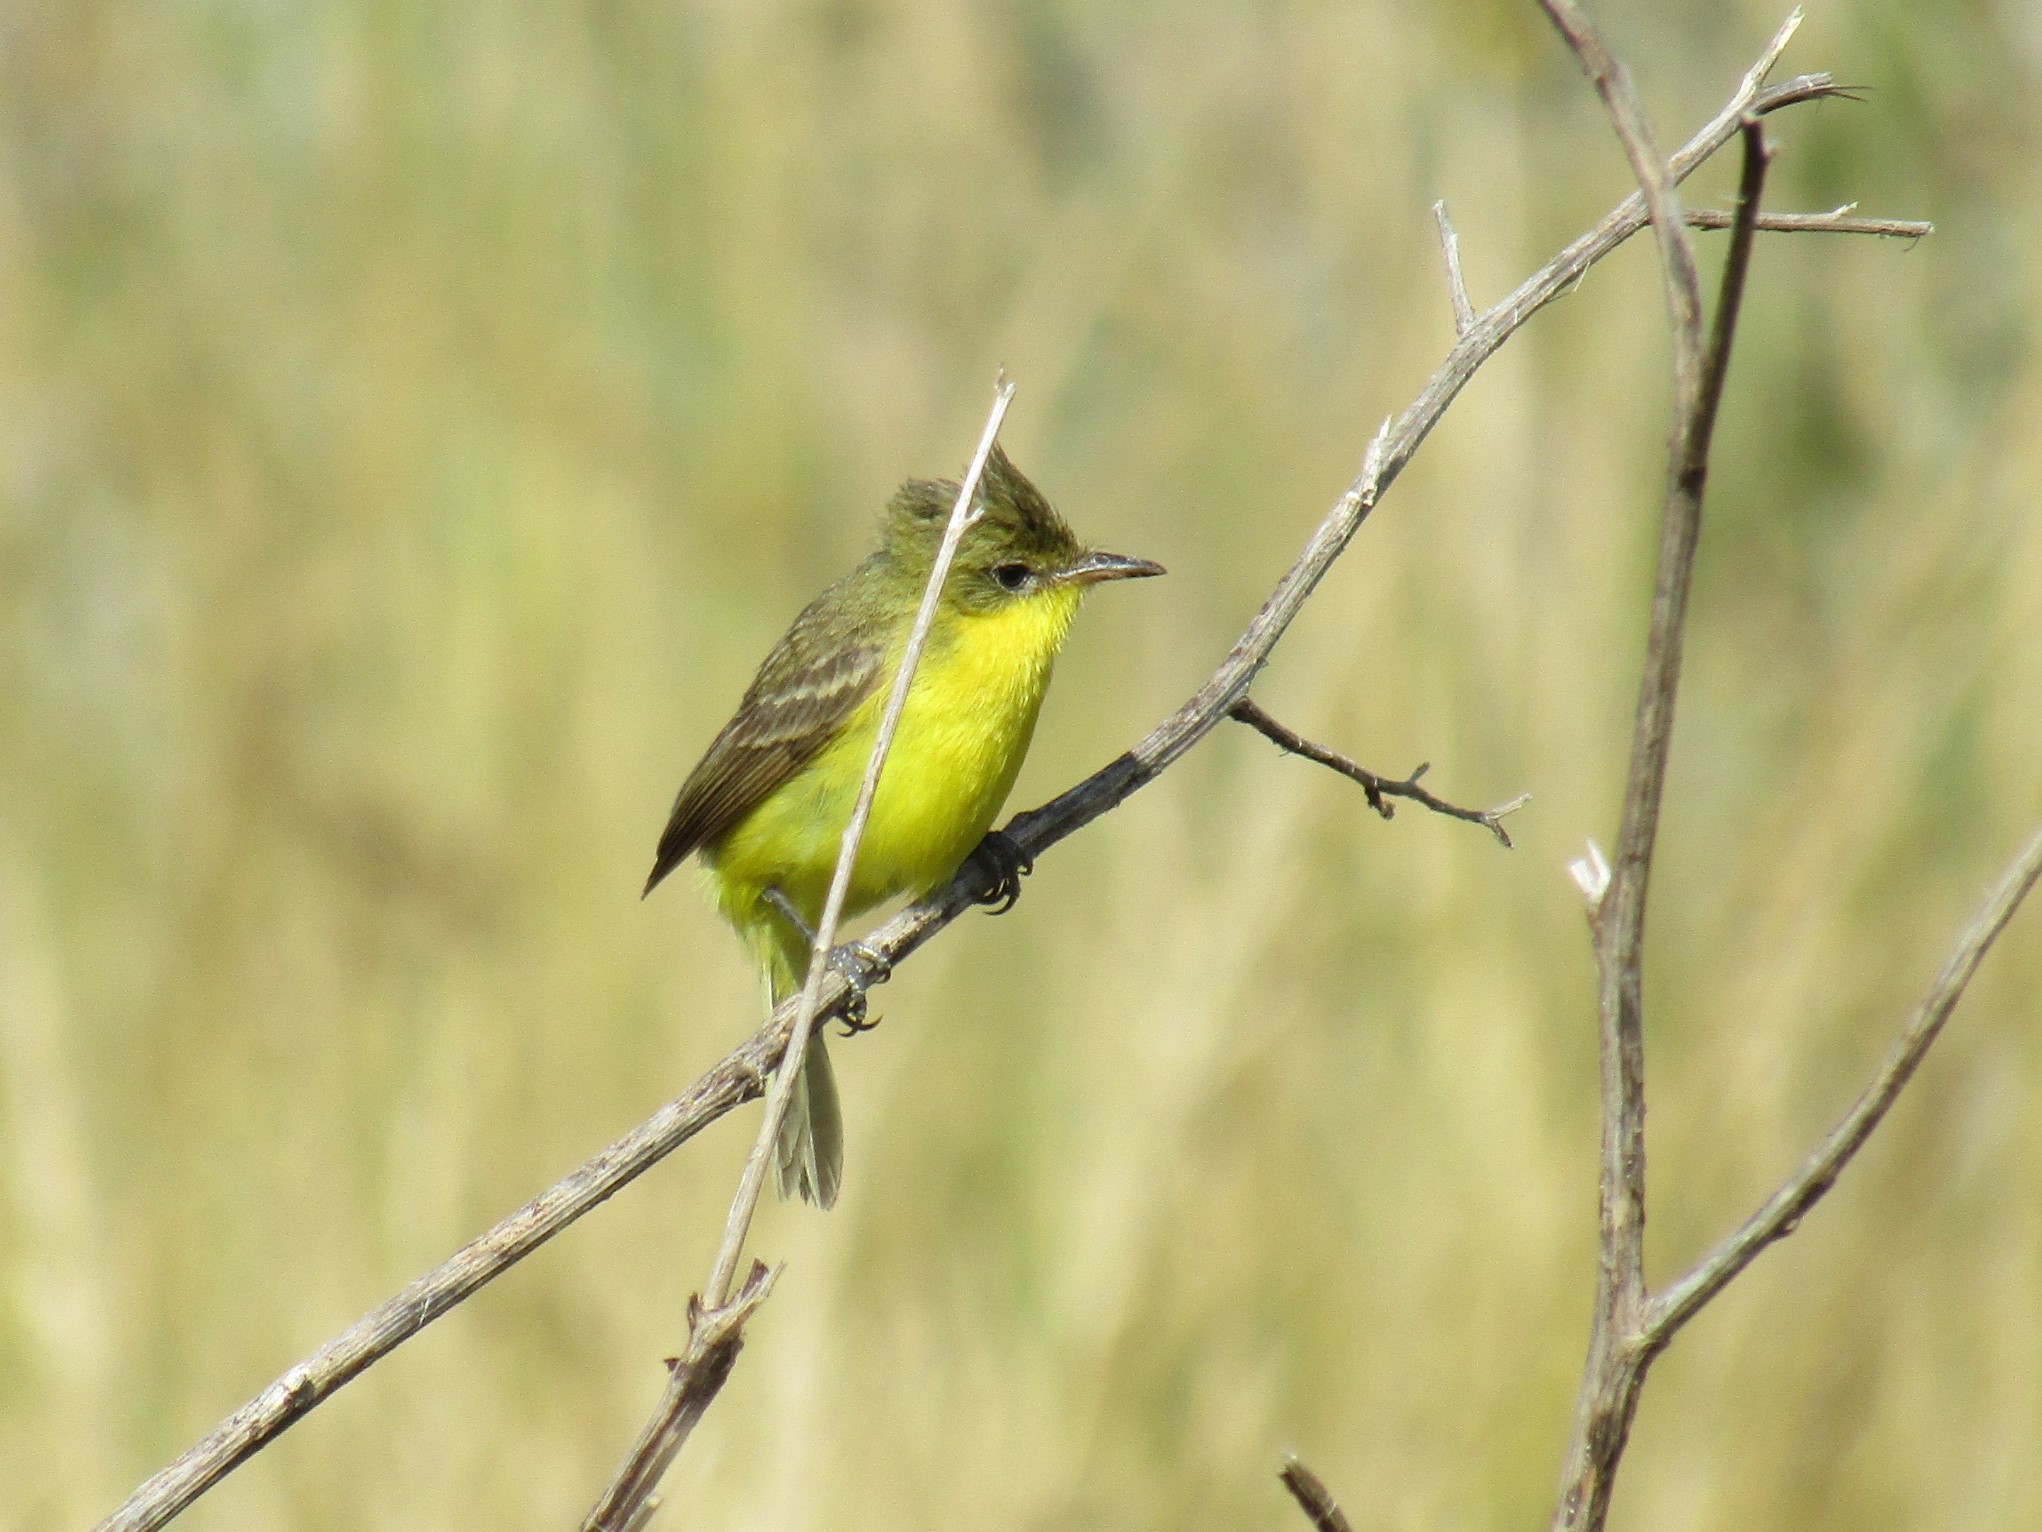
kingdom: Animalia
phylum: Chordata
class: Aves
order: Passeriformes
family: Tyrannidae
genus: Pseudocolopteryx
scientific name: Pseudocolopteryx acutipennis
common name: Subtropical doradito
